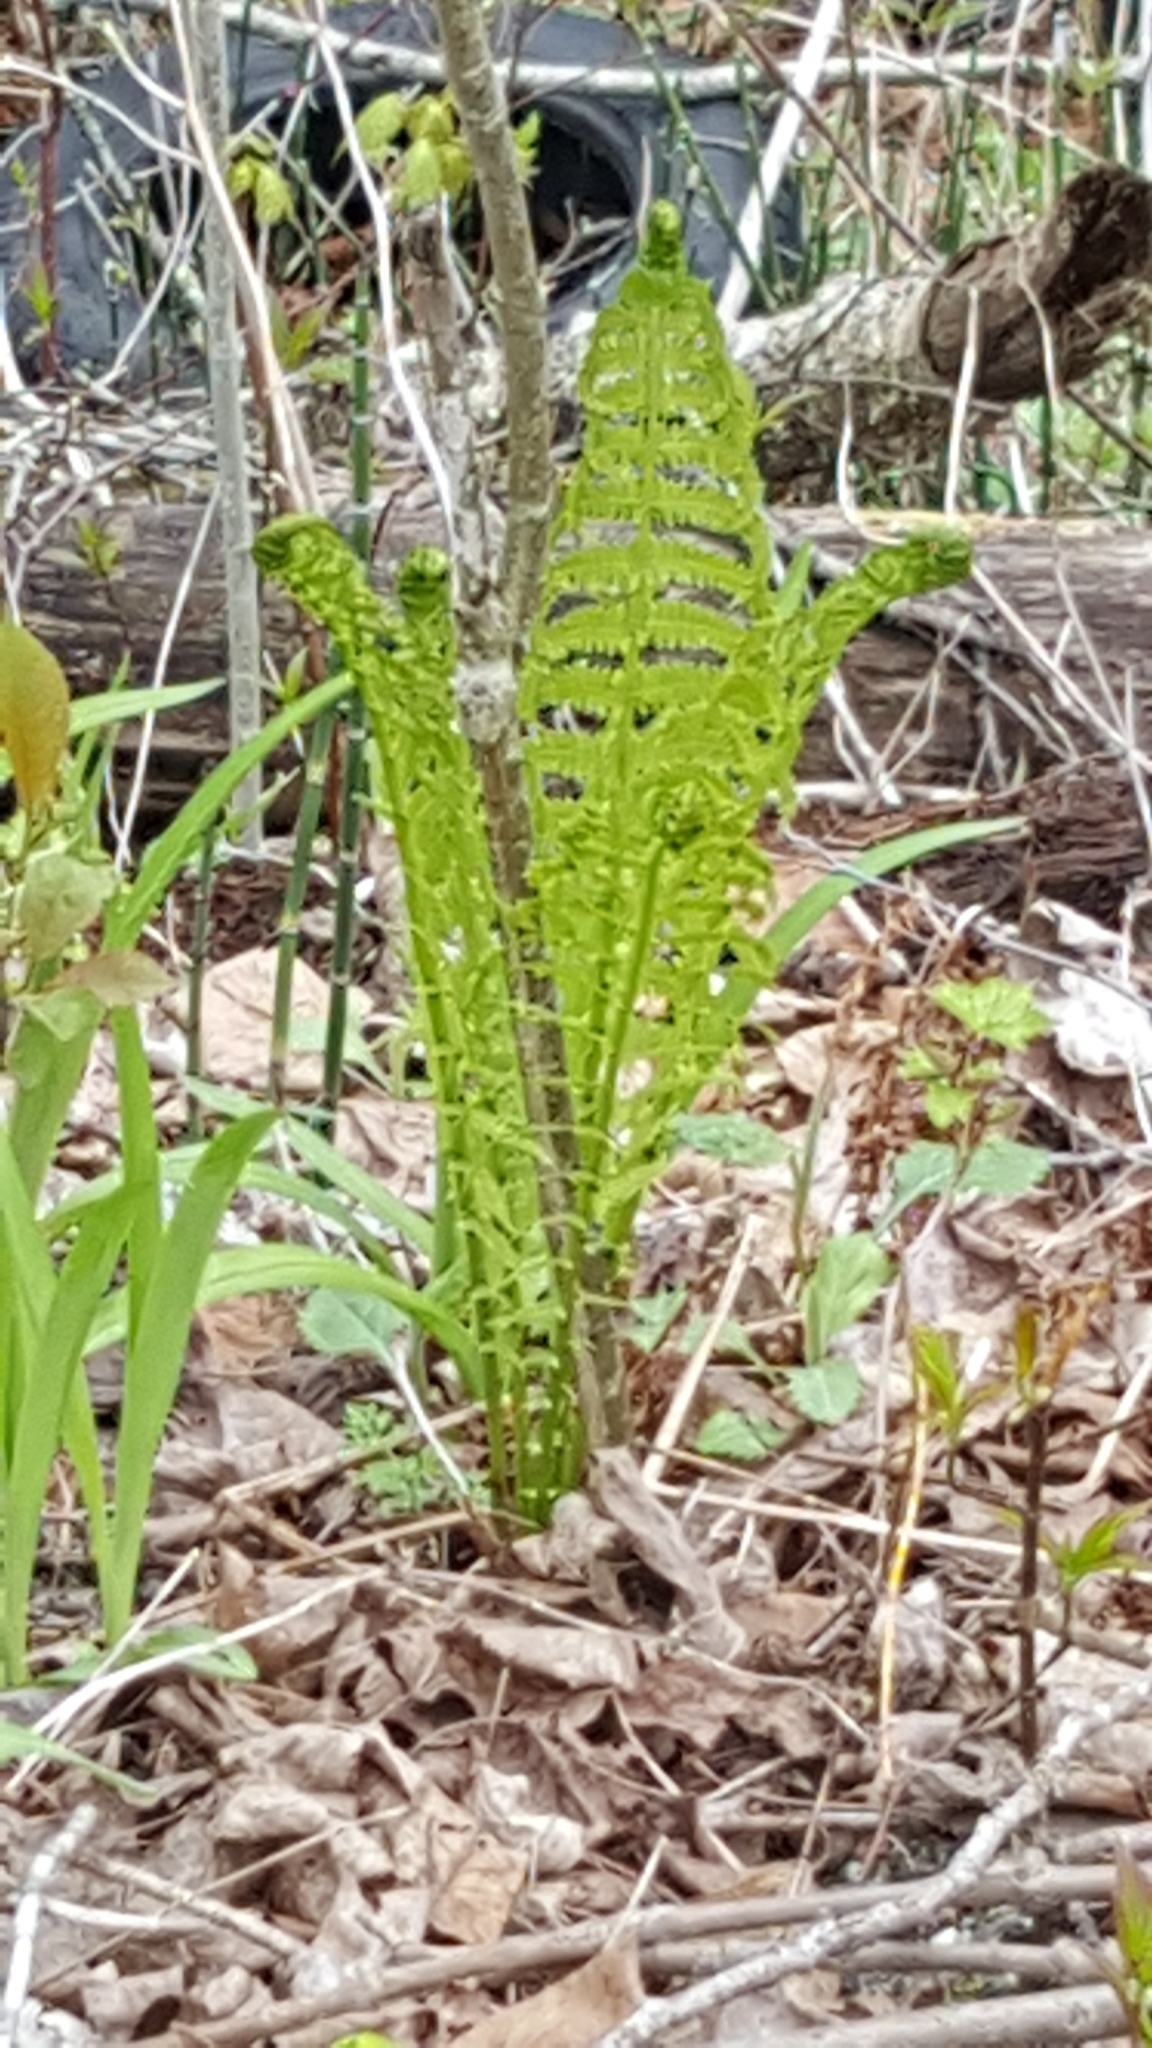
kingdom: Plantae
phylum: Tracheophyta
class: Polypodiopsida
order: Polypodiales
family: Onocleaceae
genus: Matteuccia
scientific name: Matteuccia struthiopteris
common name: Ostrich fern
